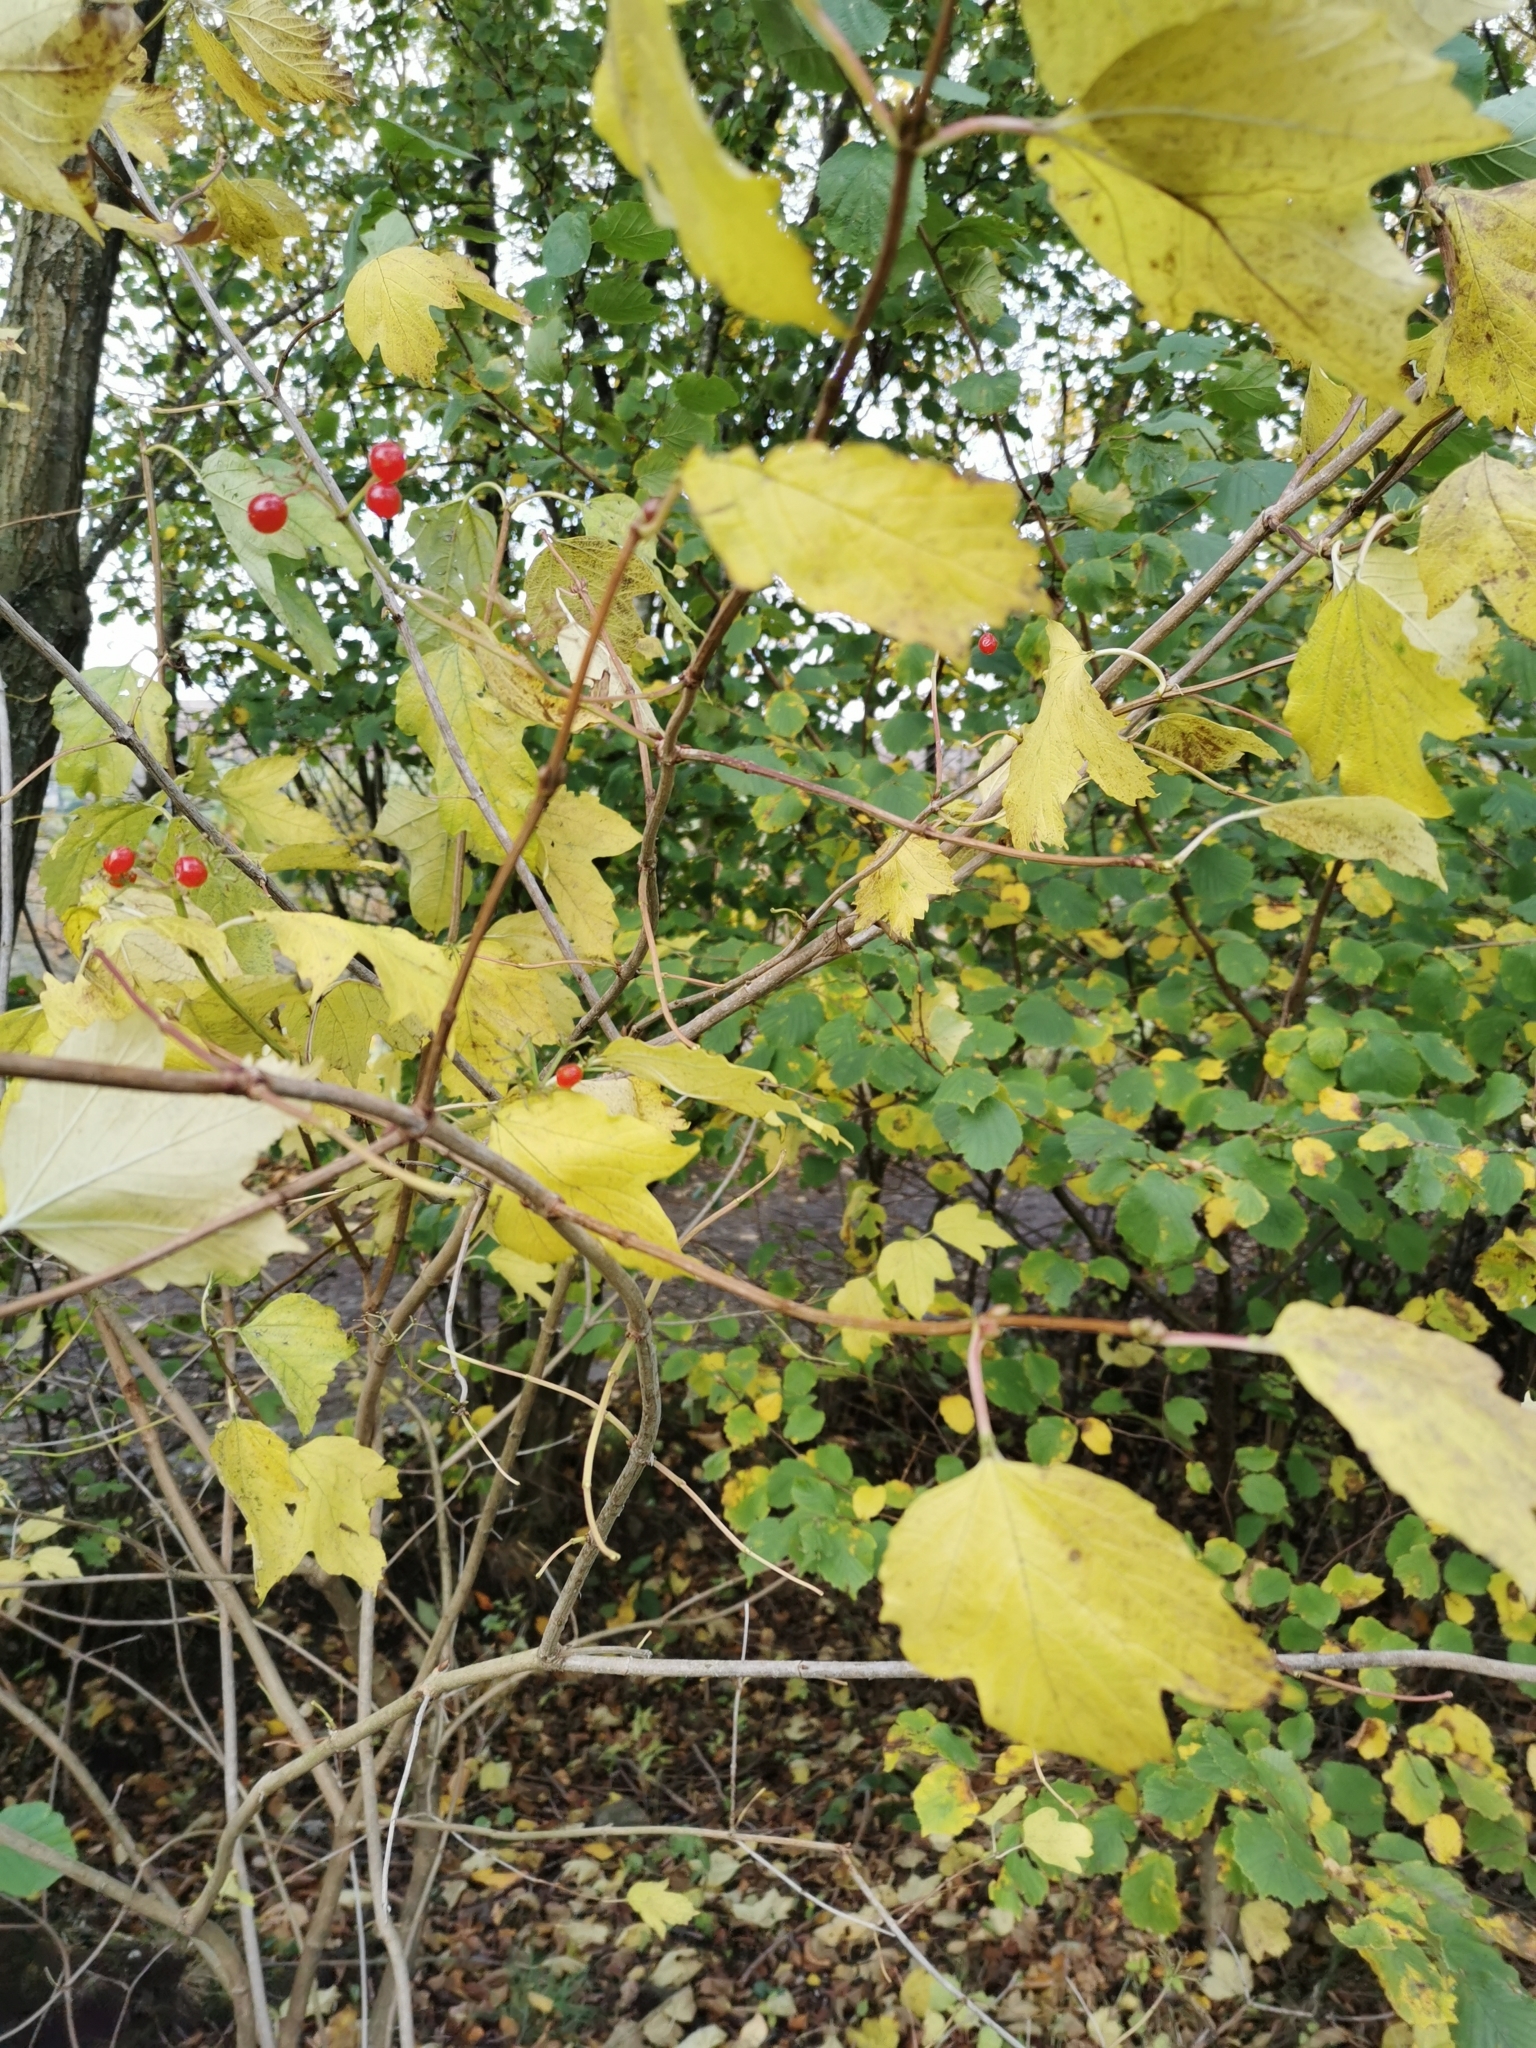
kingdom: Plantae
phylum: Tracheophyta
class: Magnoliopsida
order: Dipsacales
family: Viburnaceae
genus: Viburnum
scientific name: Viburnum opulus
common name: Guelder-rose
